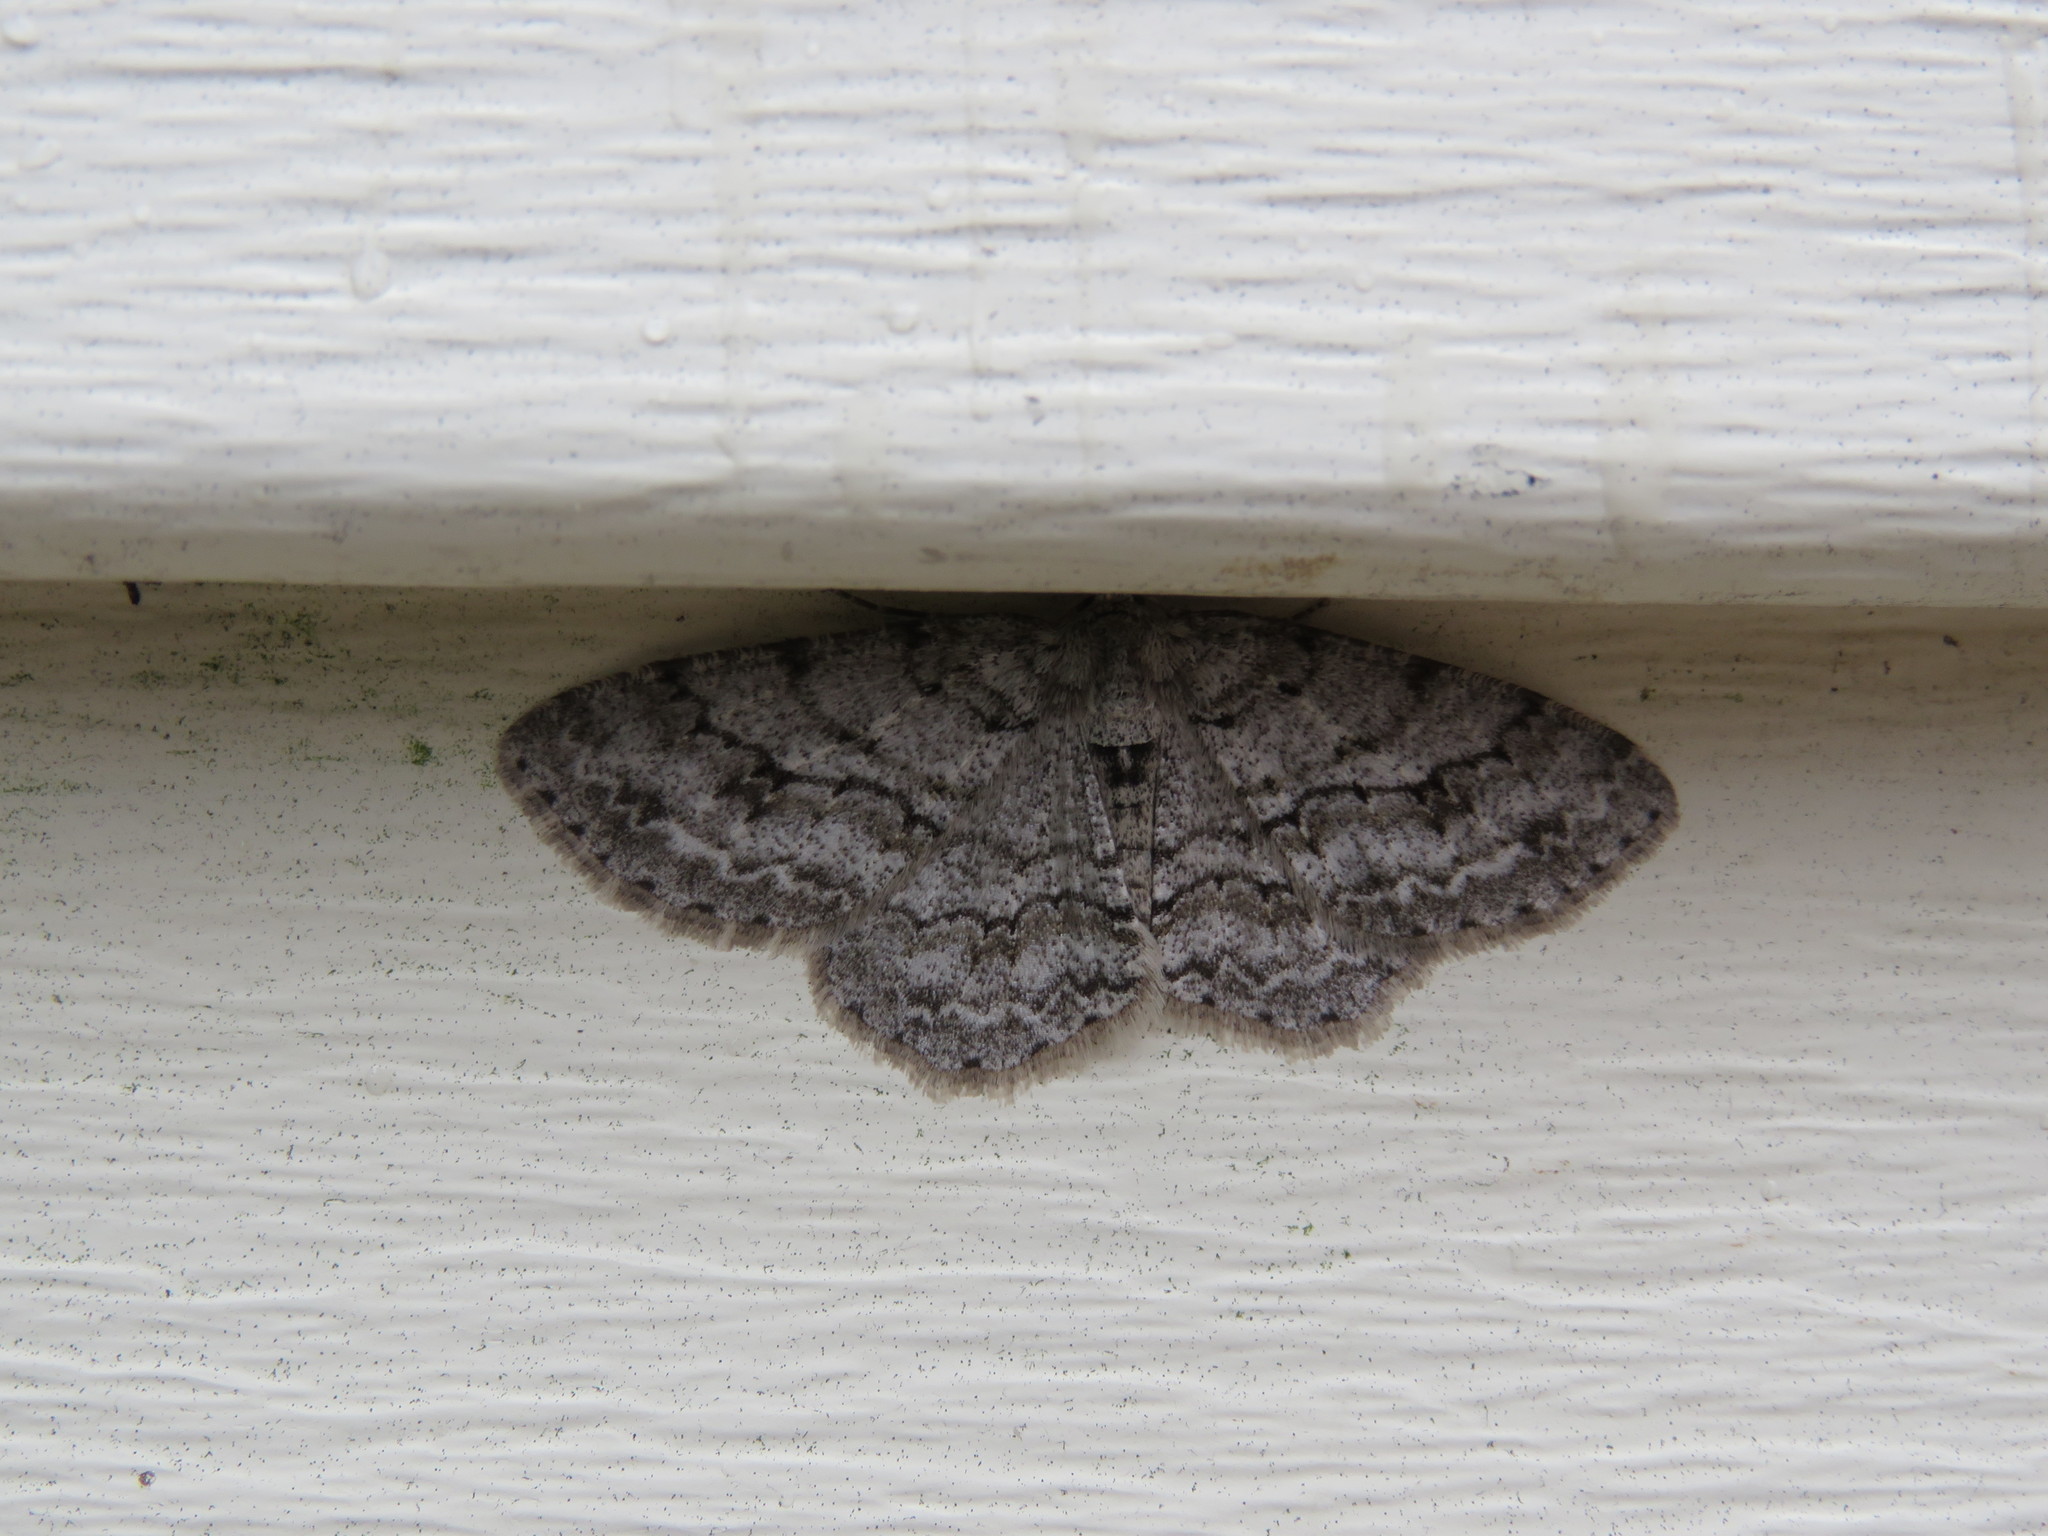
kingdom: Animalia
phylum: Arthropoda
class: Insecta
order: Lepidoptera
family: Geometridae
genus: Ectropis
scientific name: Ectropis crepuscularia
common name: Engrailed
